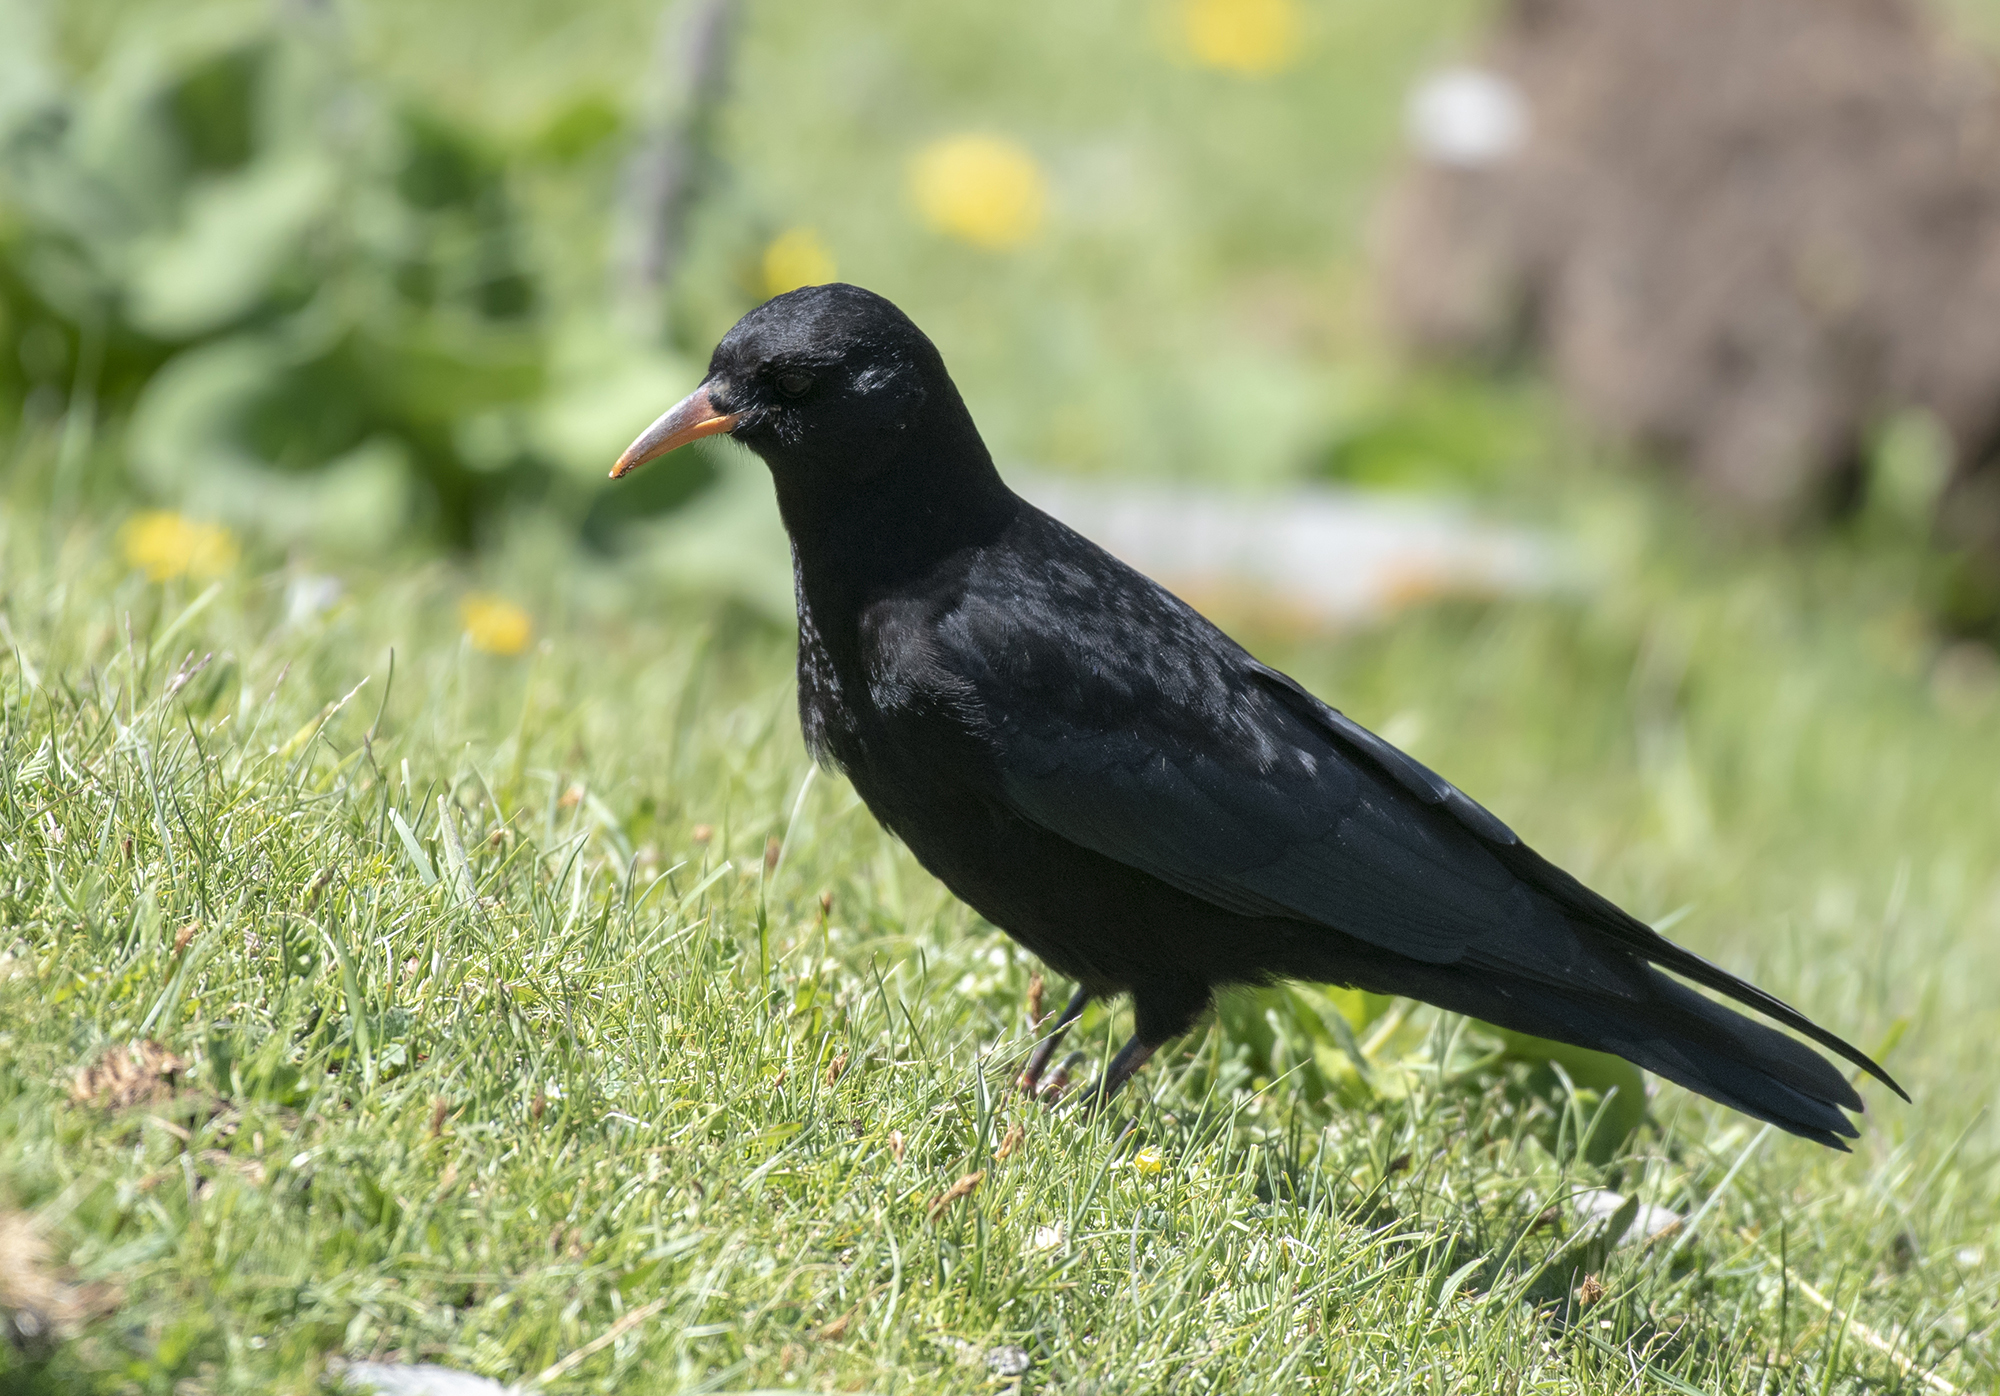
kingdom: Animalia
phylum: Chordata
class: Aves
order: Passeriformes
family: Corvidae
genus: Pyrrhocorax
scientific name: Pyrrhocorax graculus
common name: Alpine chough
